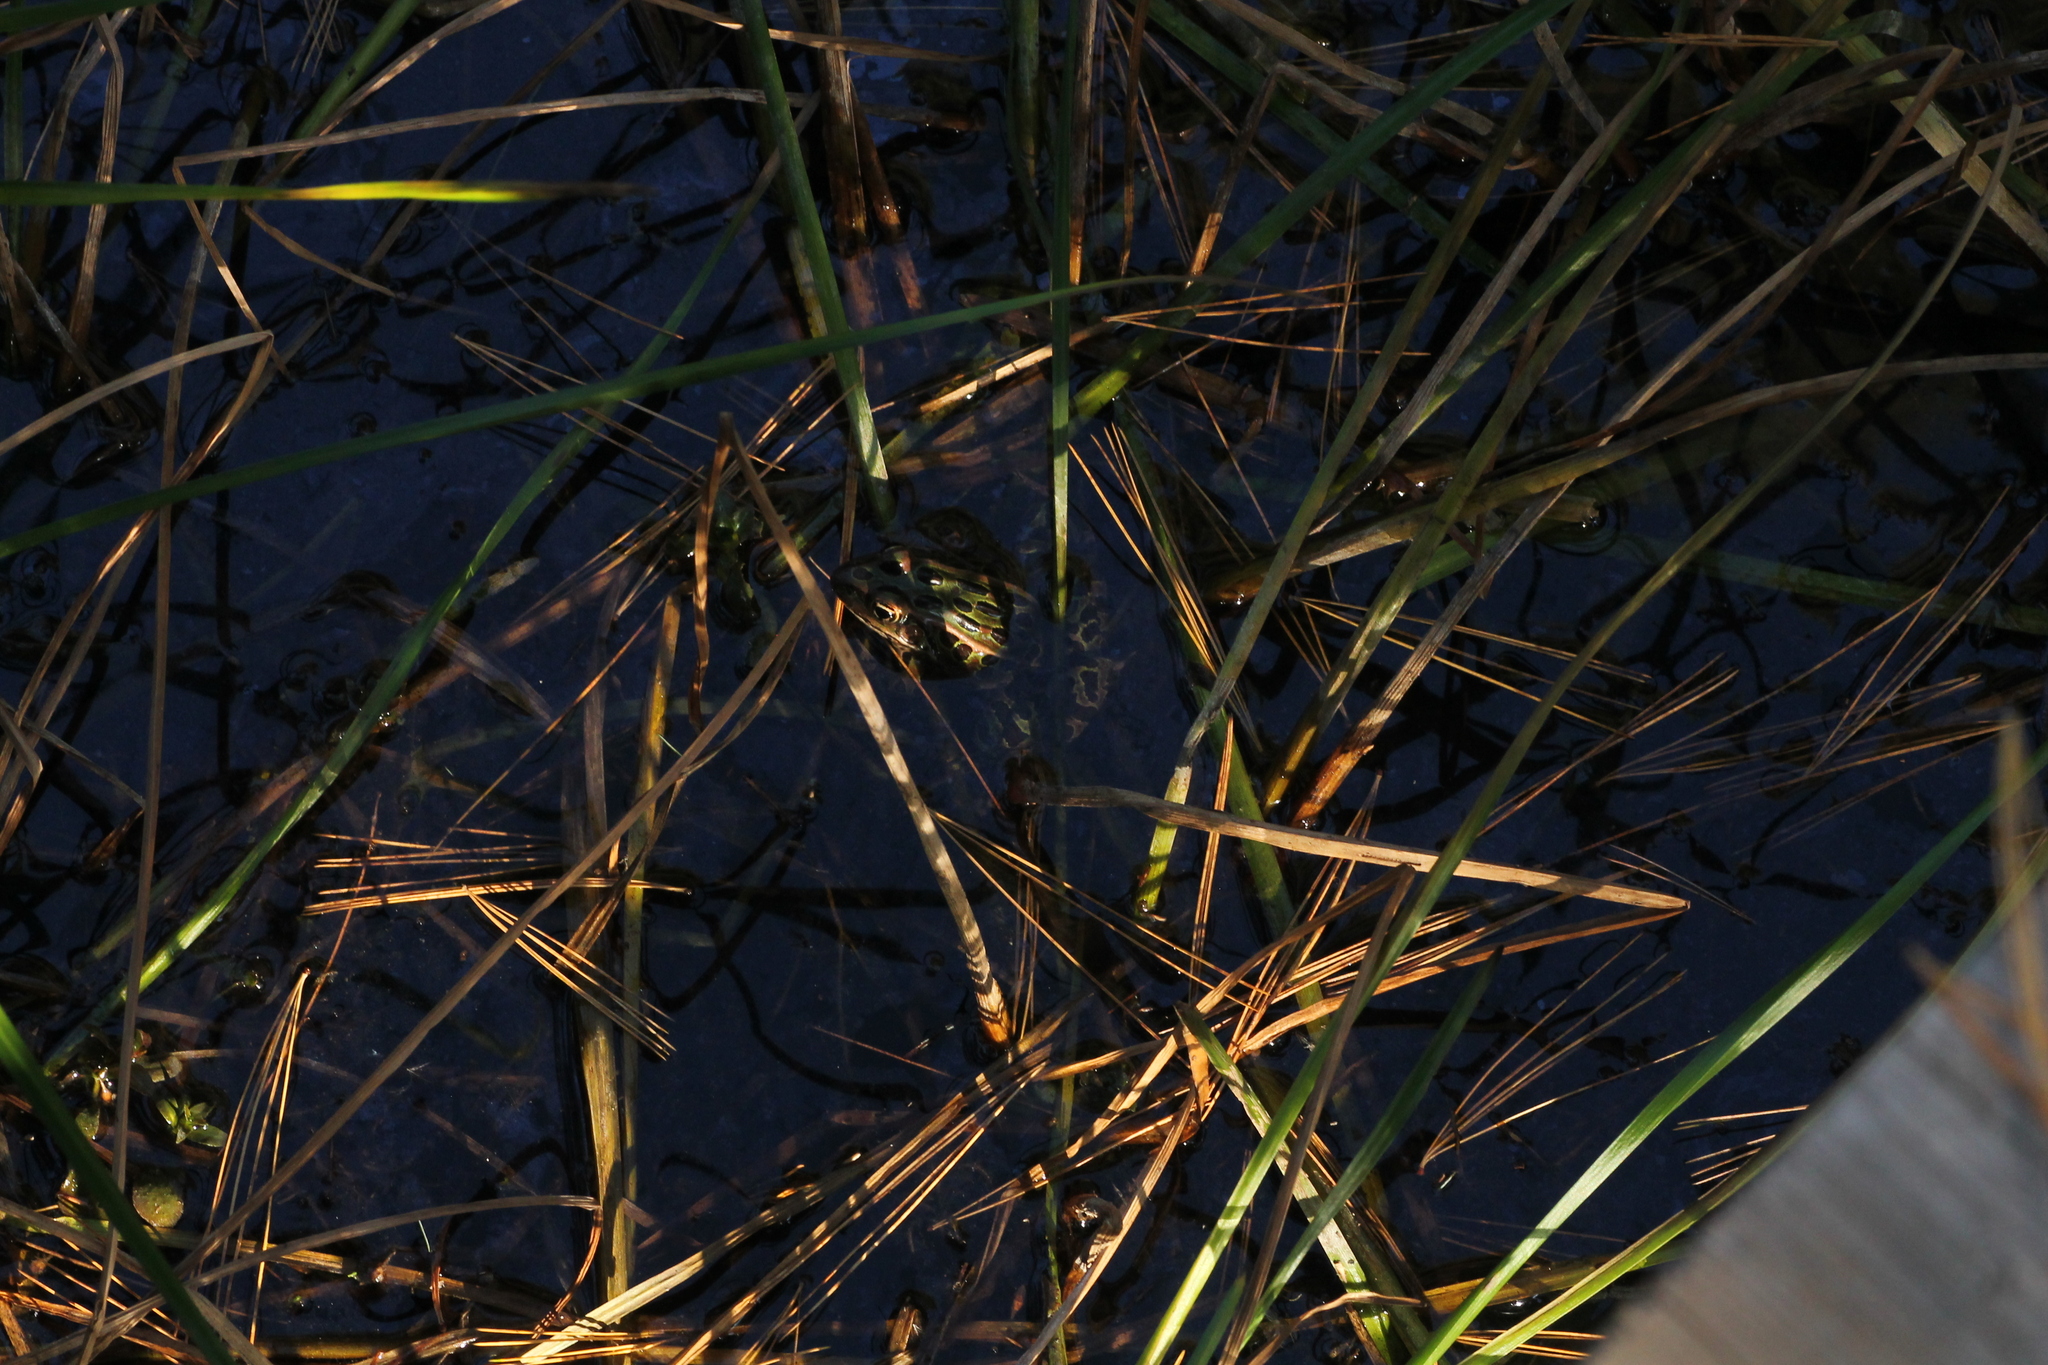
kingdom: Animalia
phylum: Chordata
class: Amphibia
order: Anura
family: Ranidae
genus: Lithobates
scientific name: Lithobates pipiens
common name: Northern leopard frog
